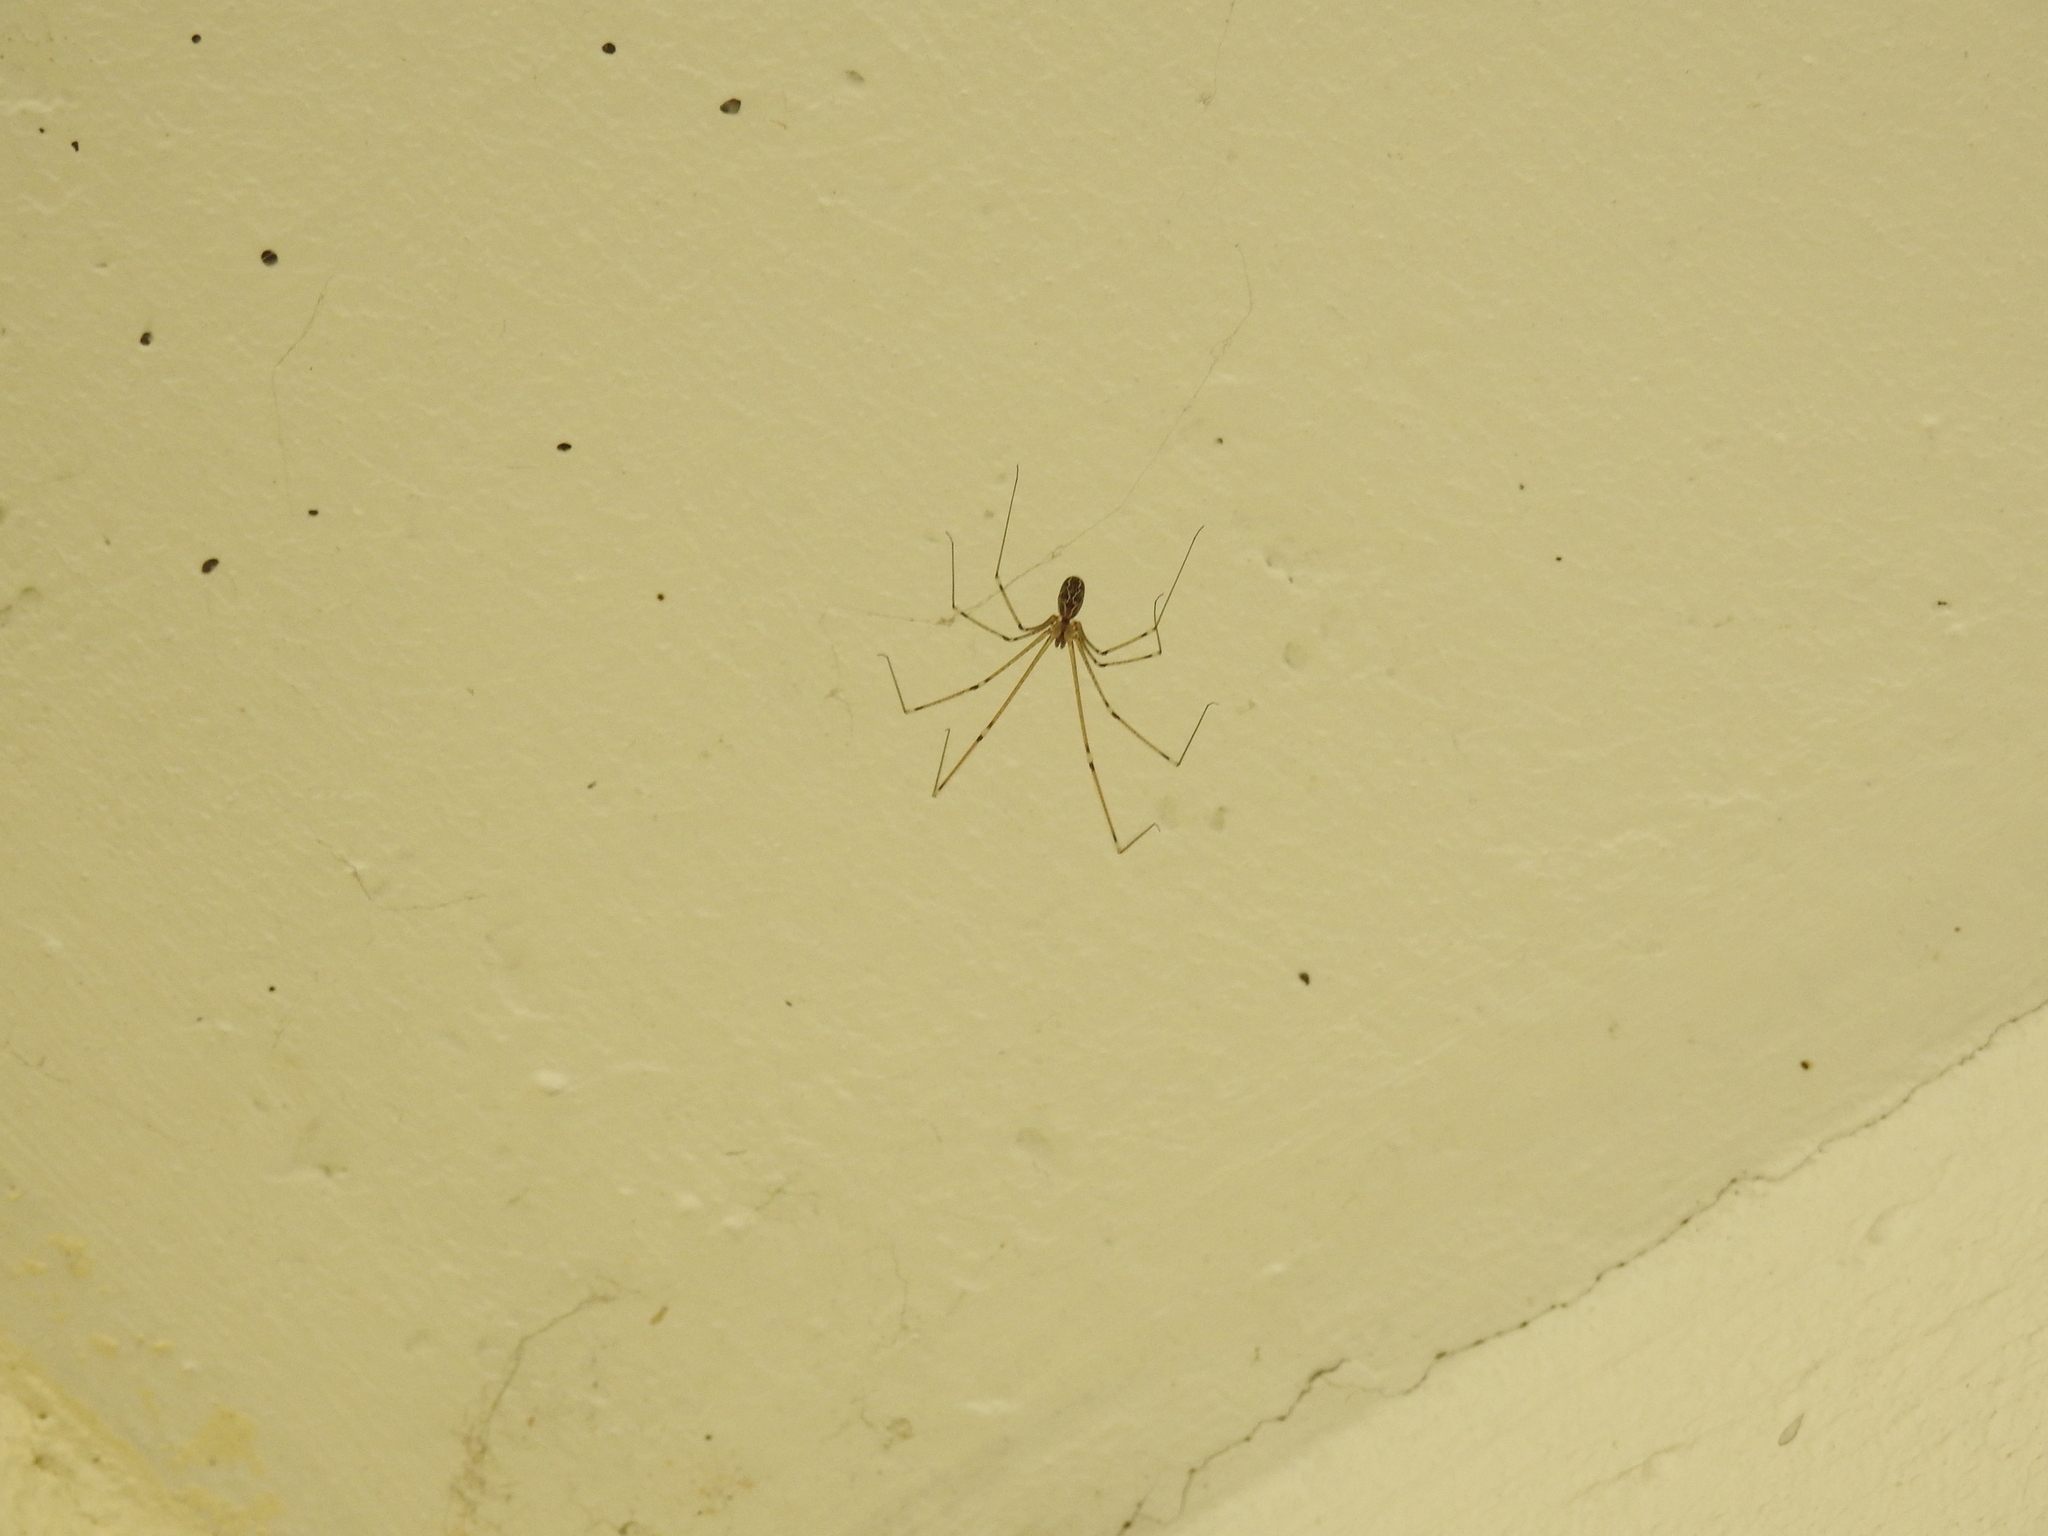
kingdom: Animalia
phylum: Arthropoda
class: Arachnida
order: Araneae
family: Pholcidae
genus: Pholcus
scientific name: Pholcus phalangioides
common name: Longbodied cellar spider
